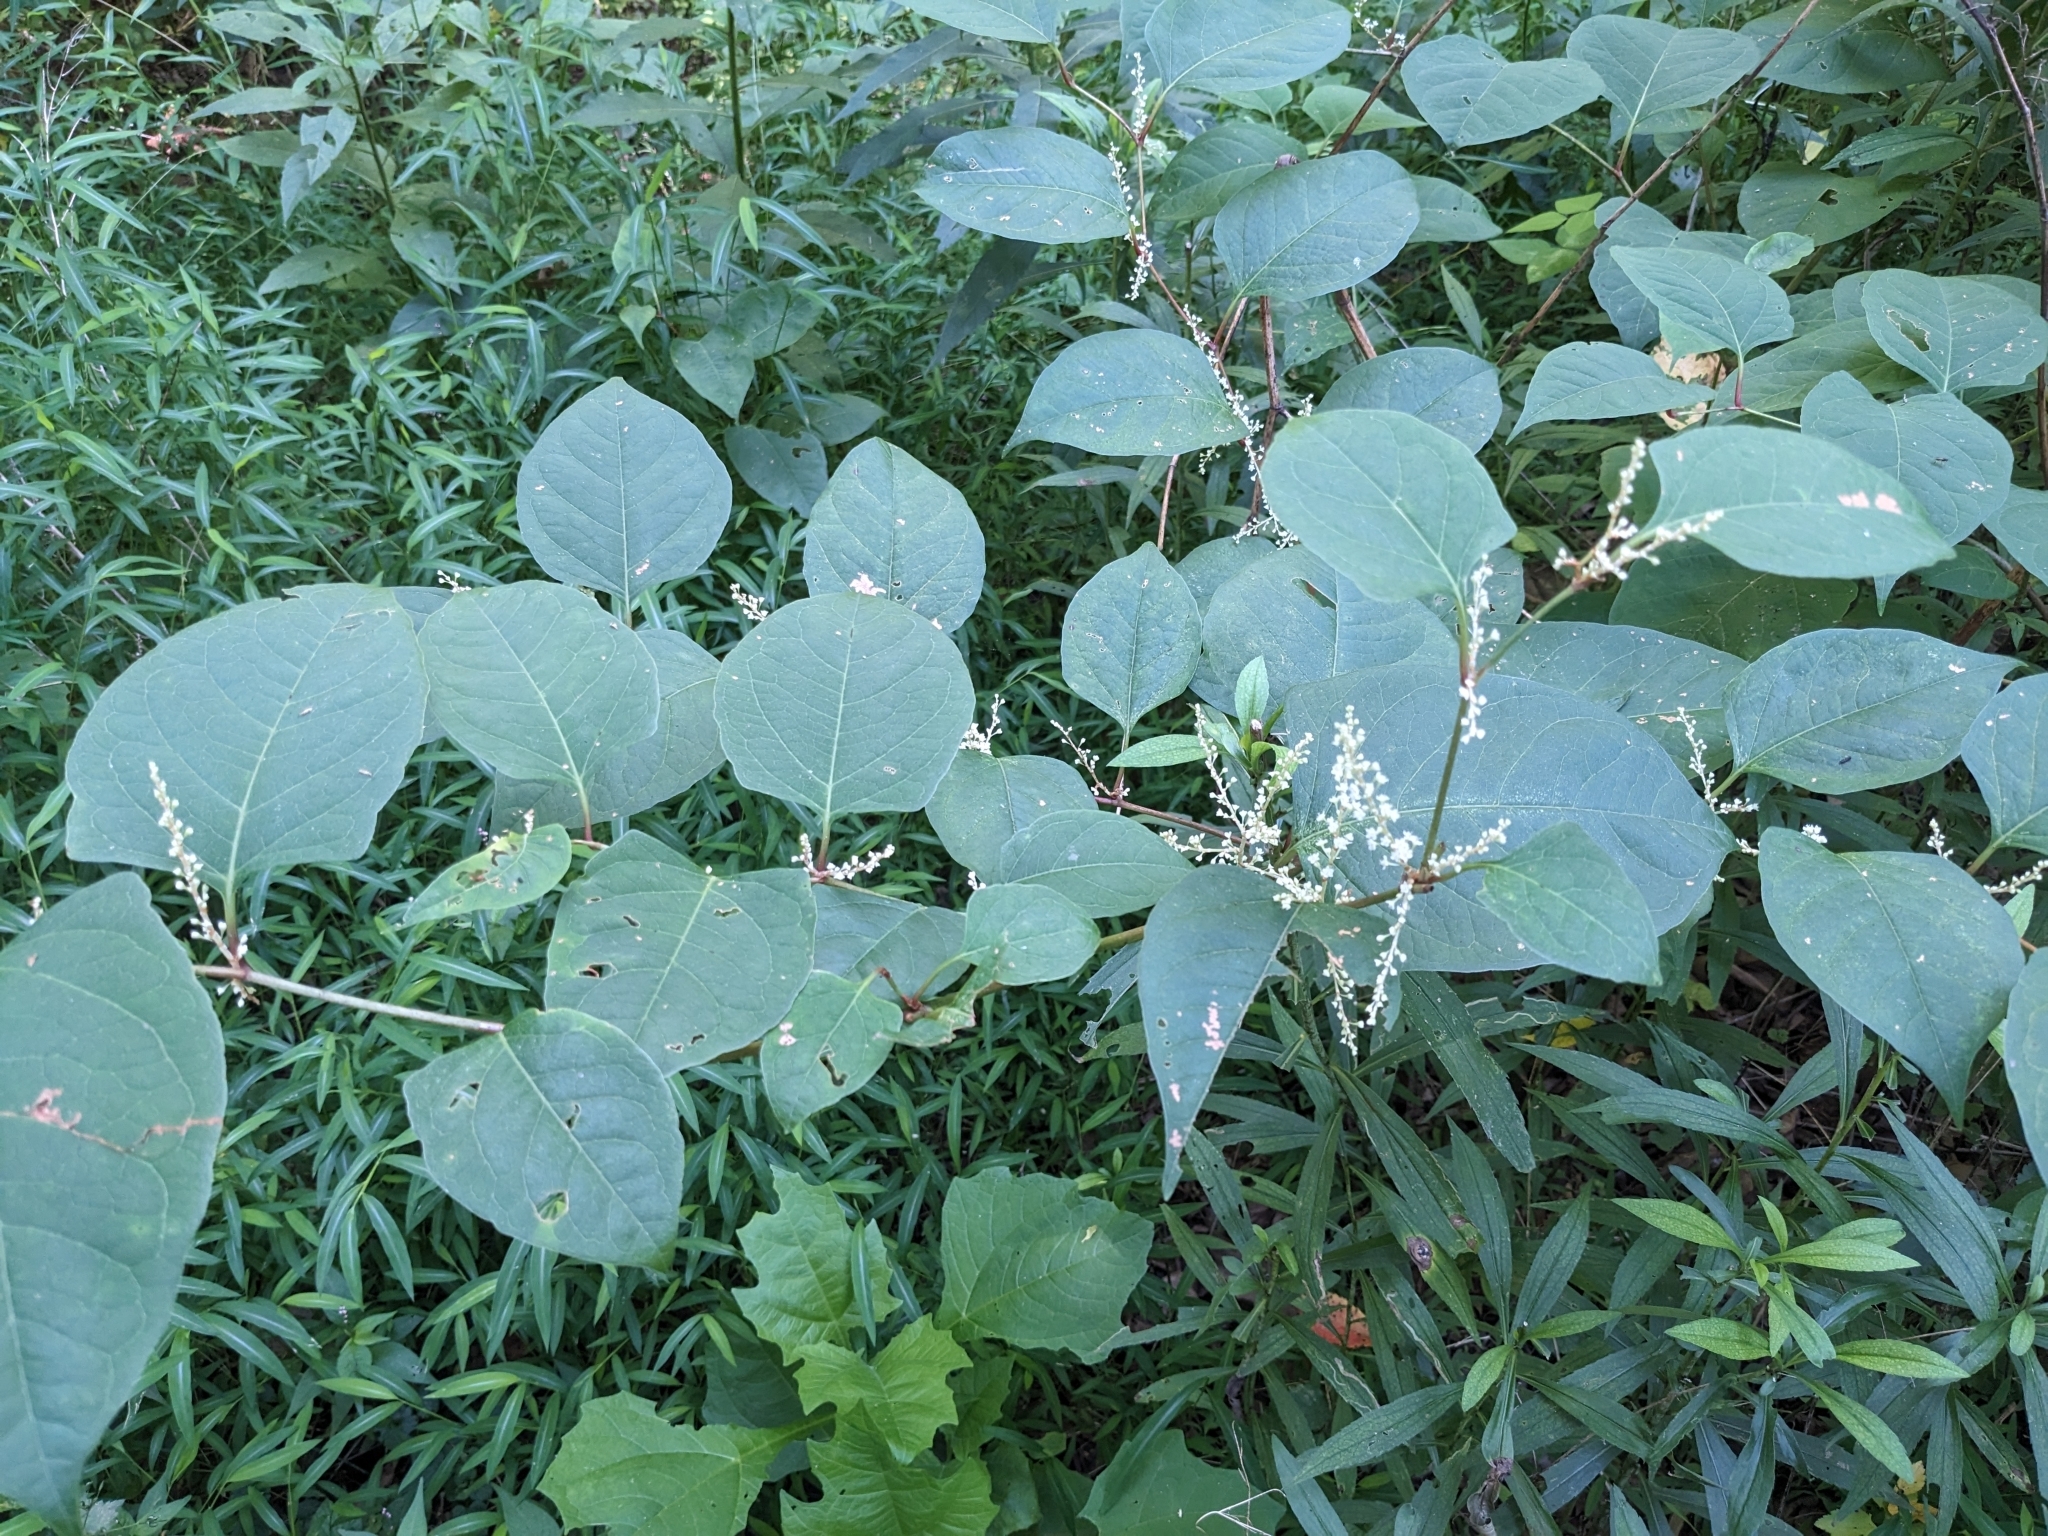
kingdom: Plantae
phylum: Tracheophyta
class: Magnoliopsida
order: Caryophyllales
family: Polygonaceae
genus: Reynoutria
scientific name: Reynoutria japonica
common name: Japanese knotweed
